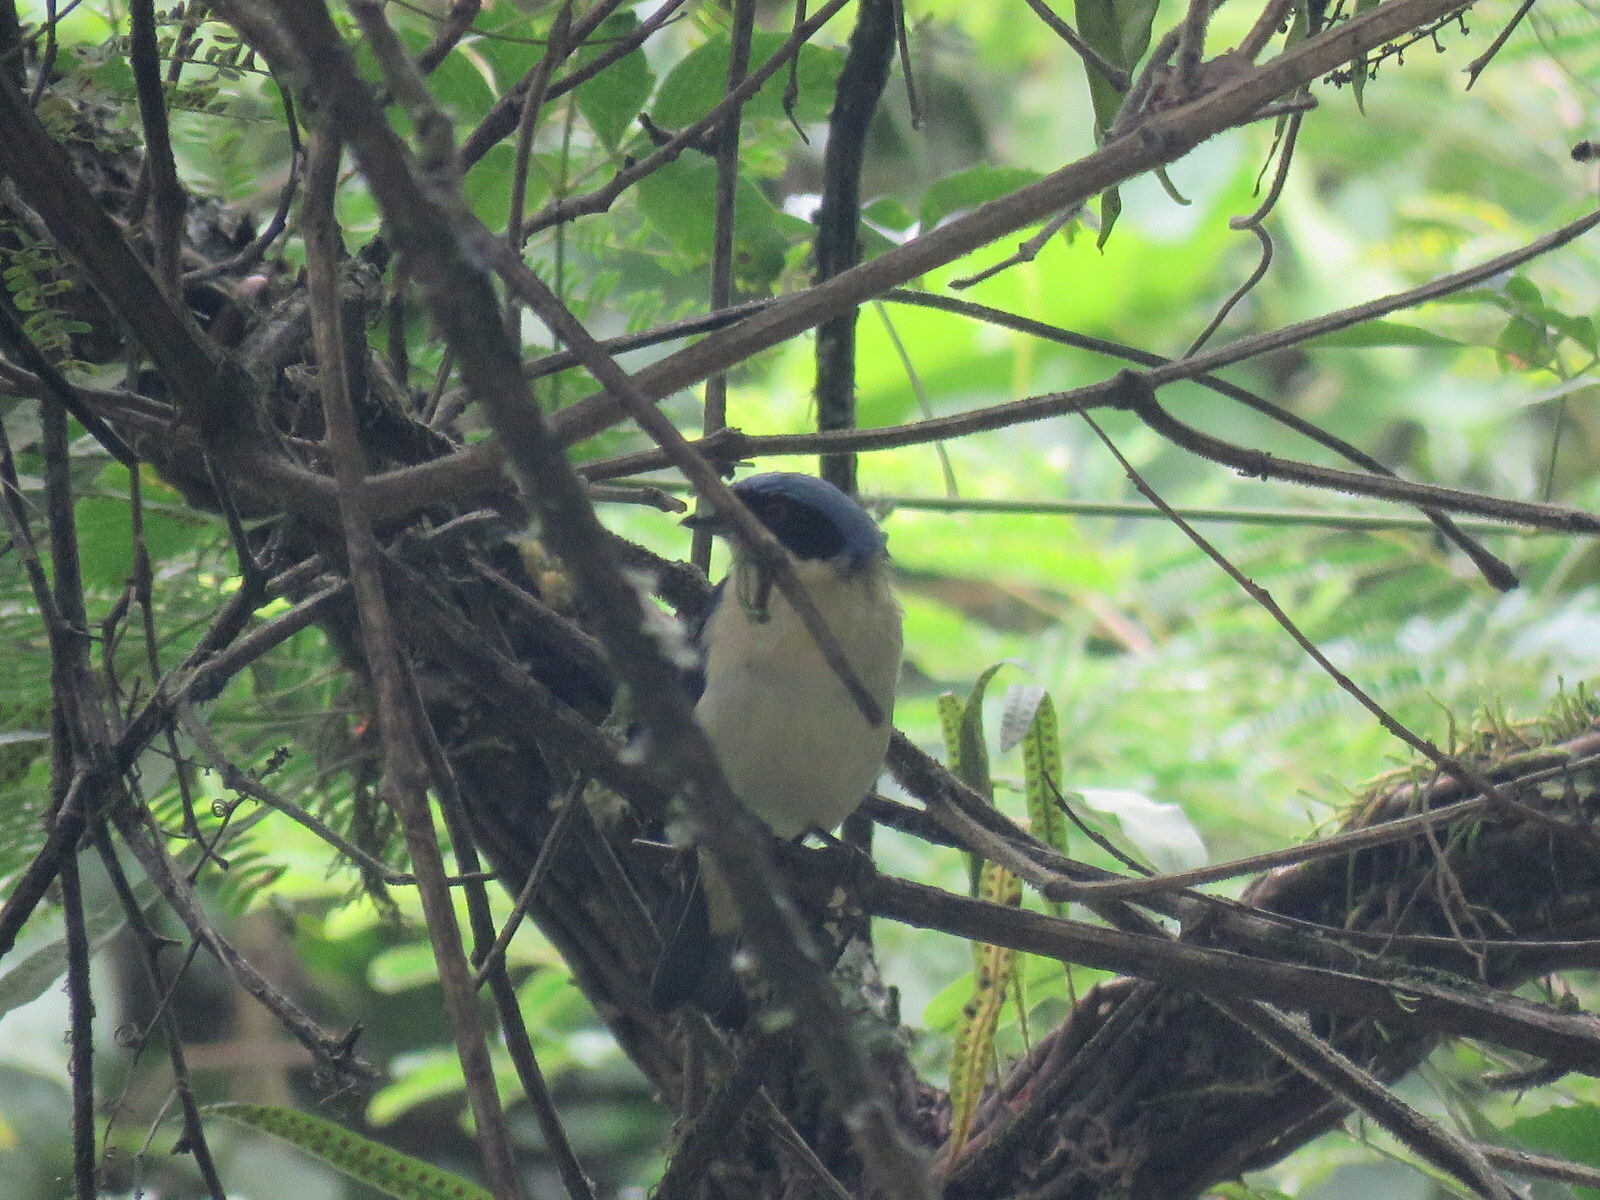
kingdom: Animalia
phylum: Chordata
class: Aves
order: Passeriformes
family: Thraupidae
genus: Pipraeidea
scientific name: Pipraeidea melanonota
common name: Fawn-breasted tanager
